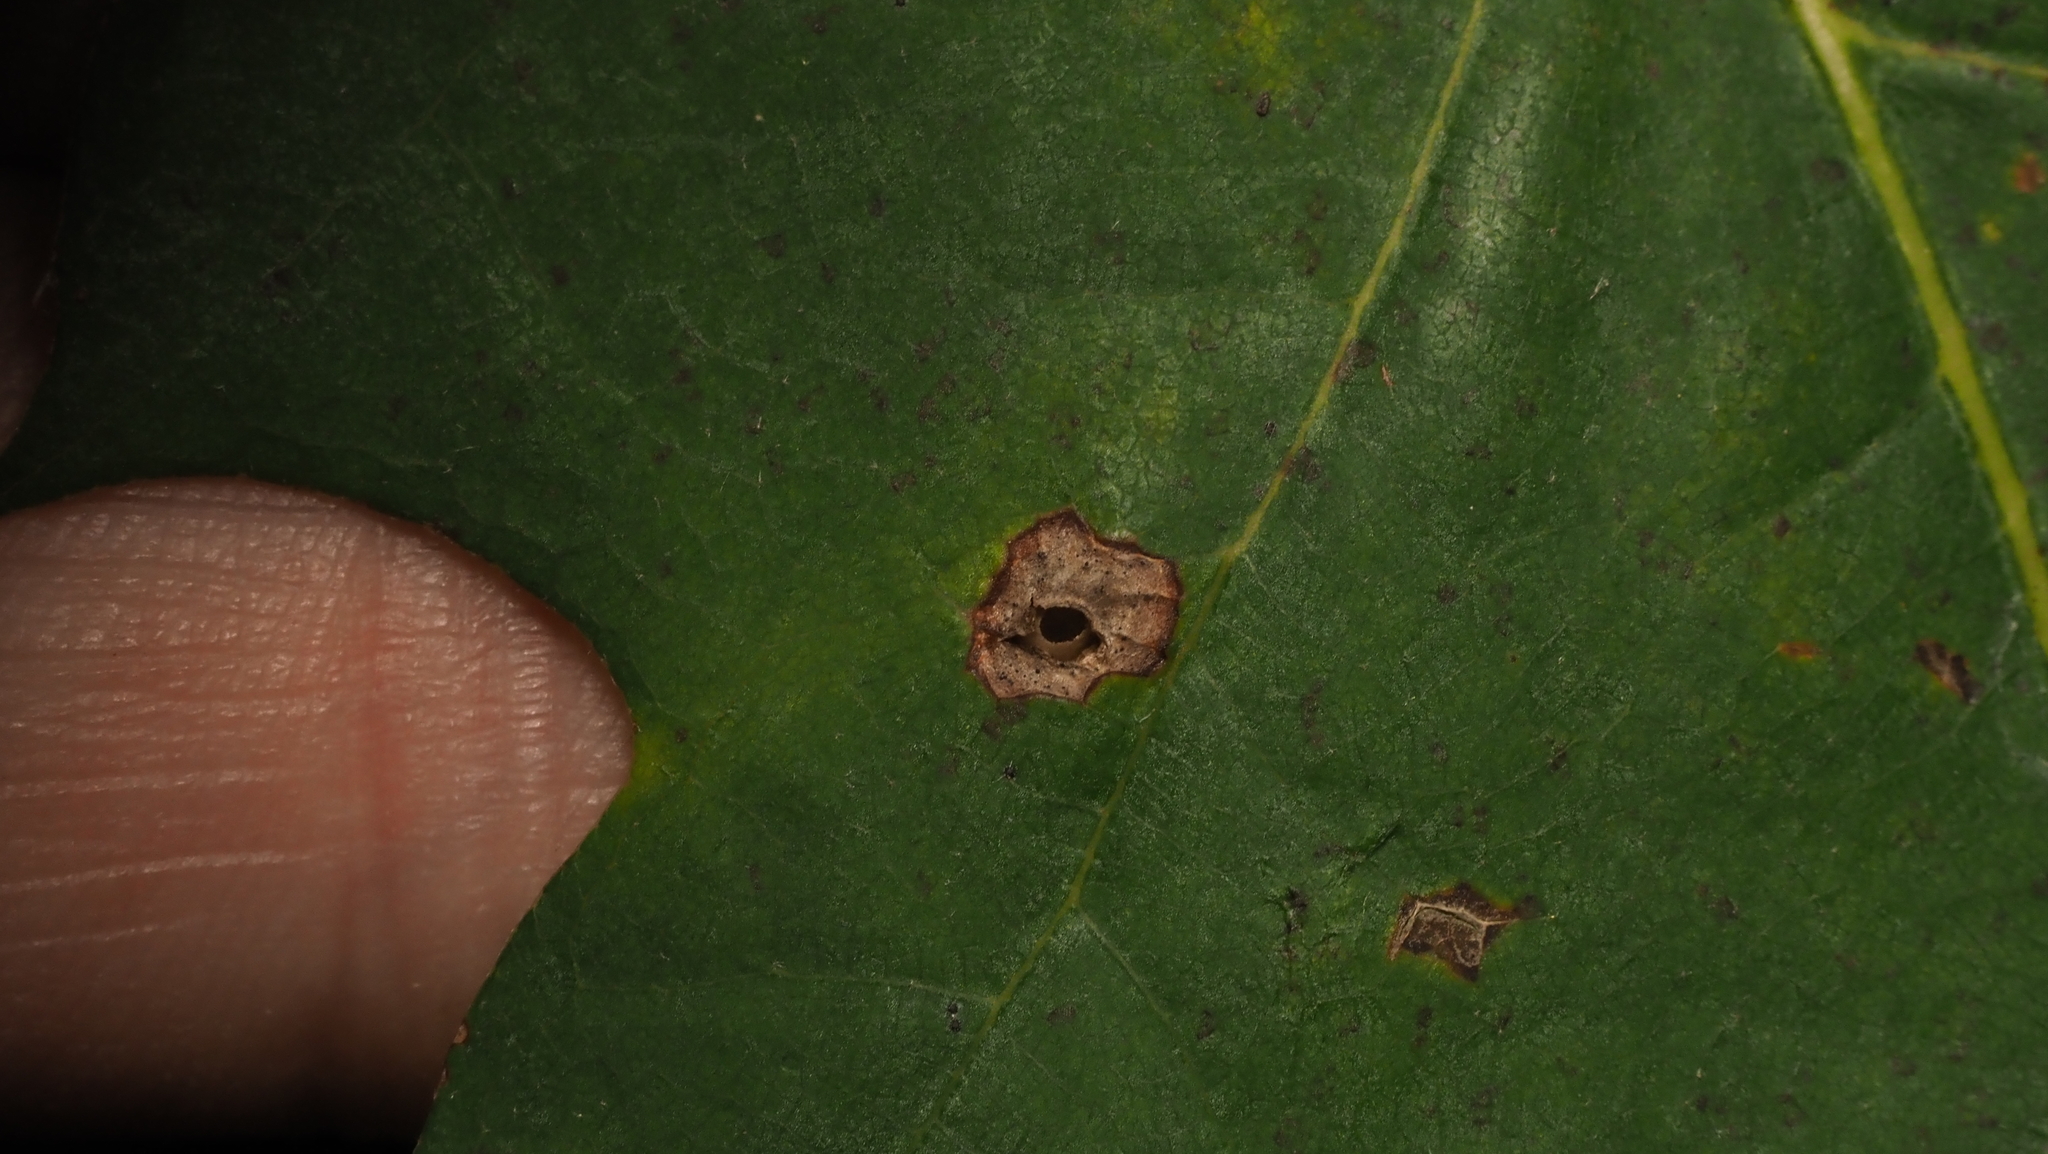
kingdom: Animalia
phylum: Arthropoda
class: Insecta
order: Hymenoptera
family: Cynipidae
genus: Dryocosmus
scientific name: Dryocosmus
